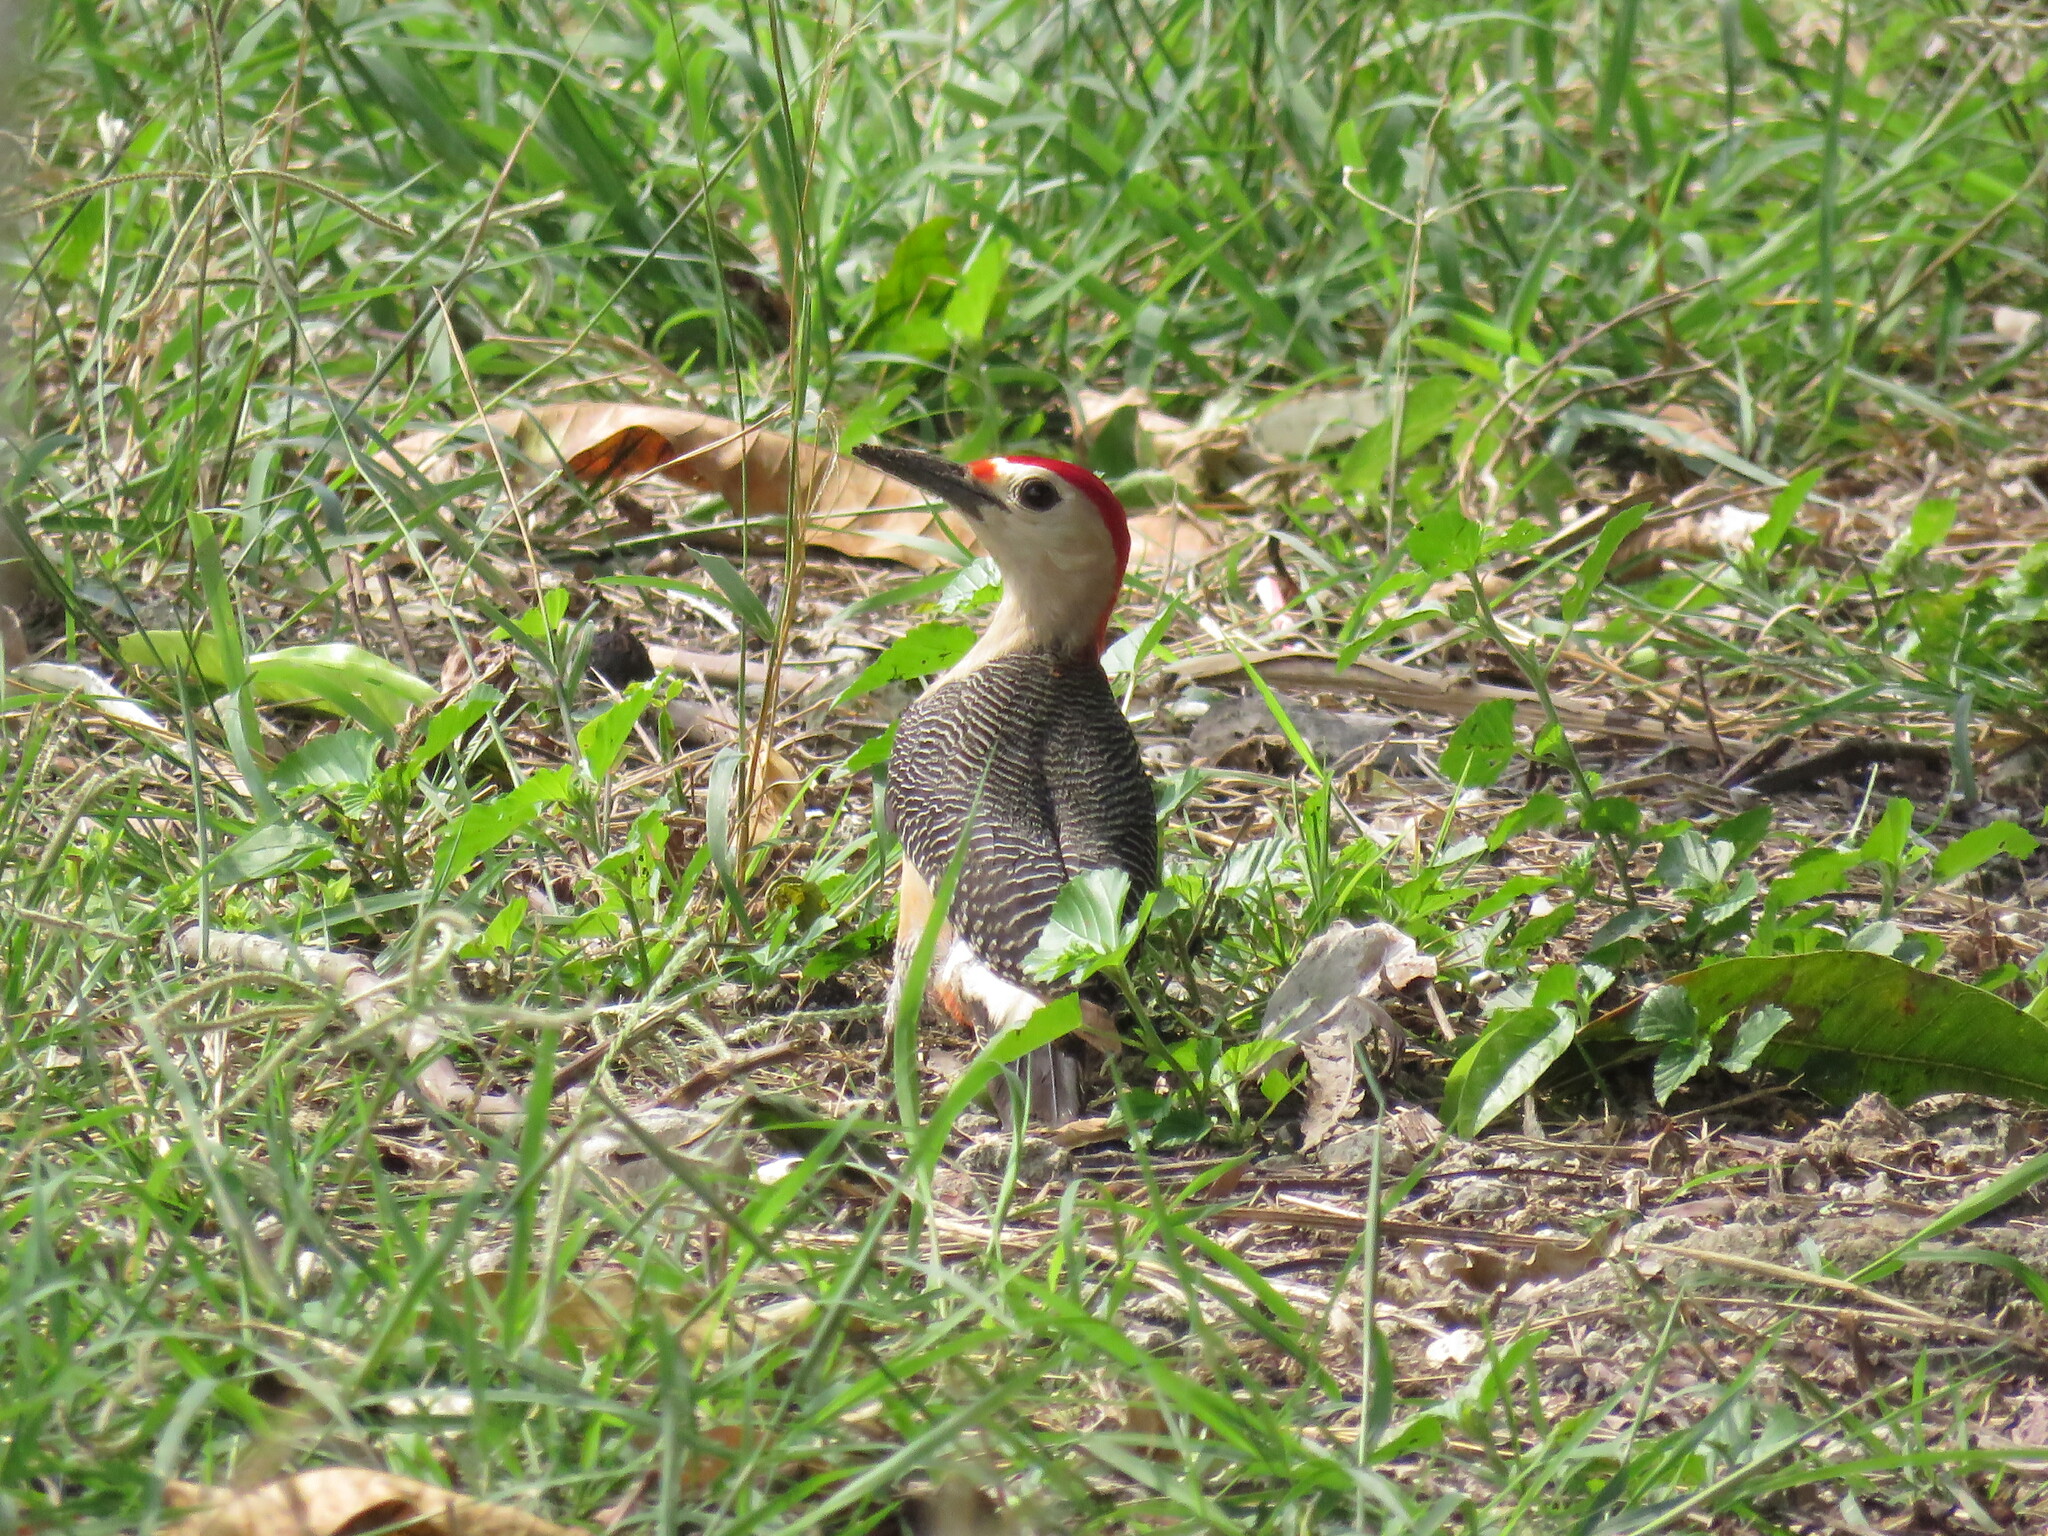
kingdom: Animalia
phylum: Chordata
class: Aves
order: Piciformes
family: Picidae
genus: Melanerpes
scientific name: Melanerpes aurifrons
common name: Golden-fronted woodpecker
